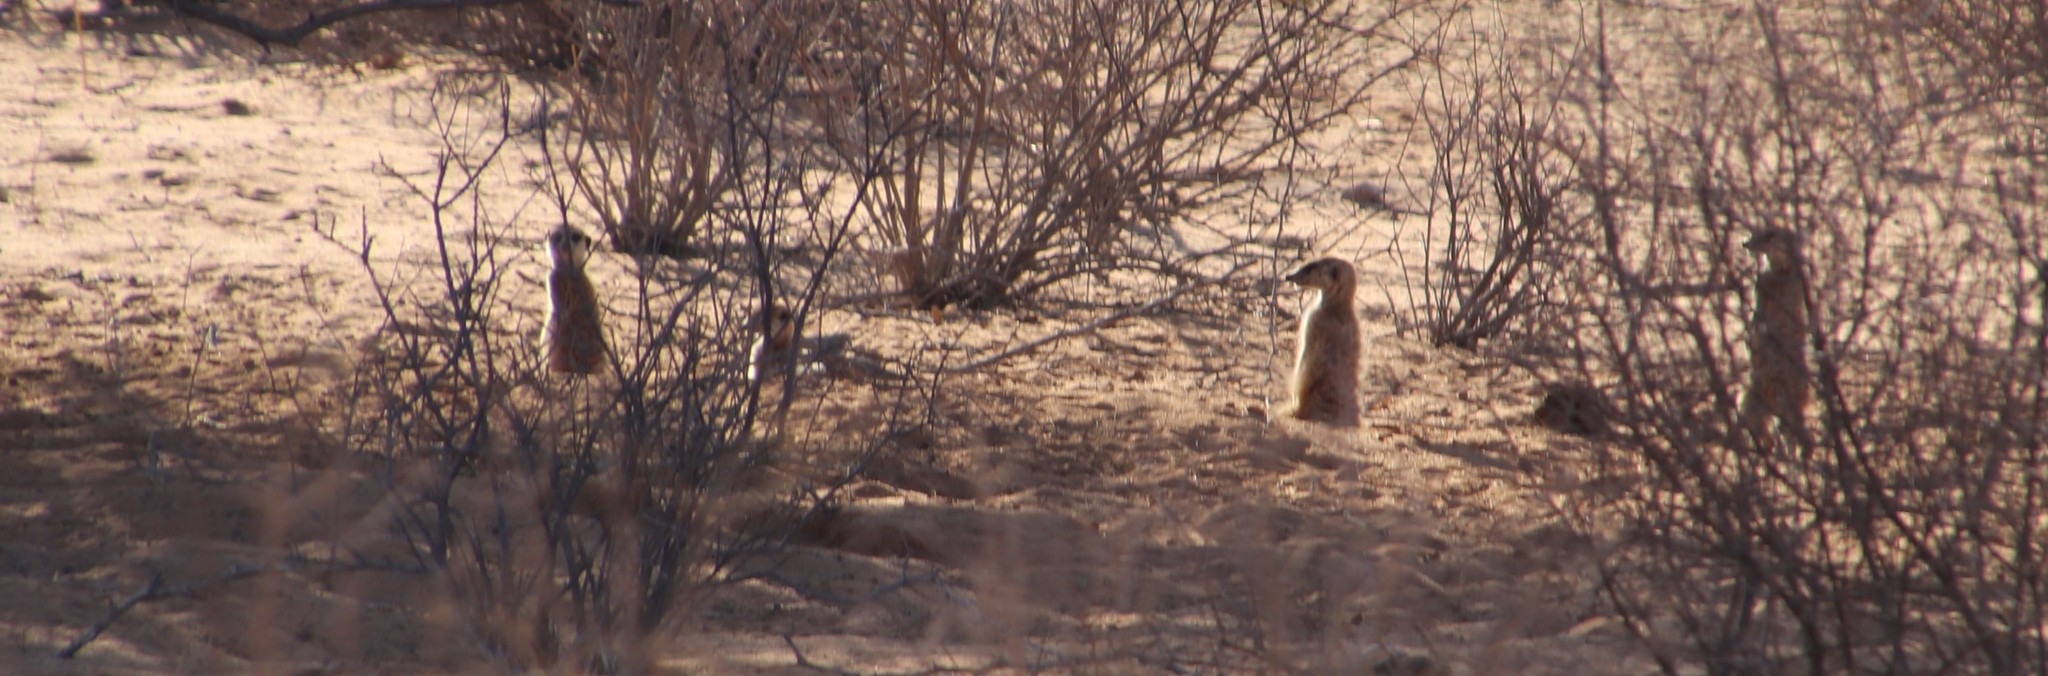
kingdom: Animalia
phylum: Chordata
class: Mammalia
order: Carnivora
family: Herpestidae
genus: Suricata
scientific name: Suricata suricatta
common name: Meerkat
